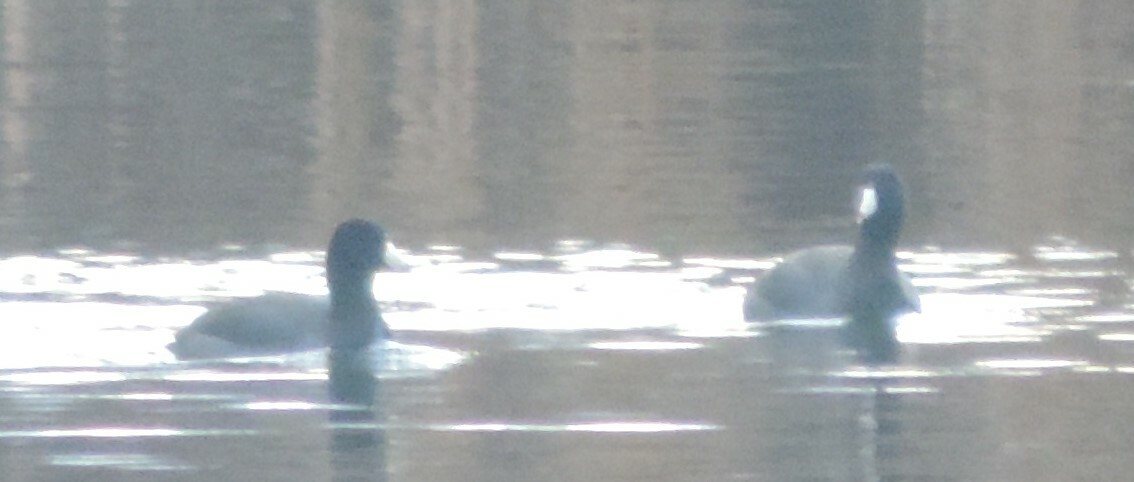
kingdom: Animalia
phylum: Chordata
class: Aves
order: Gruiformes
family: Rallidae
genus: Fulica
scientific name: Fulica americana
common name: American coot
